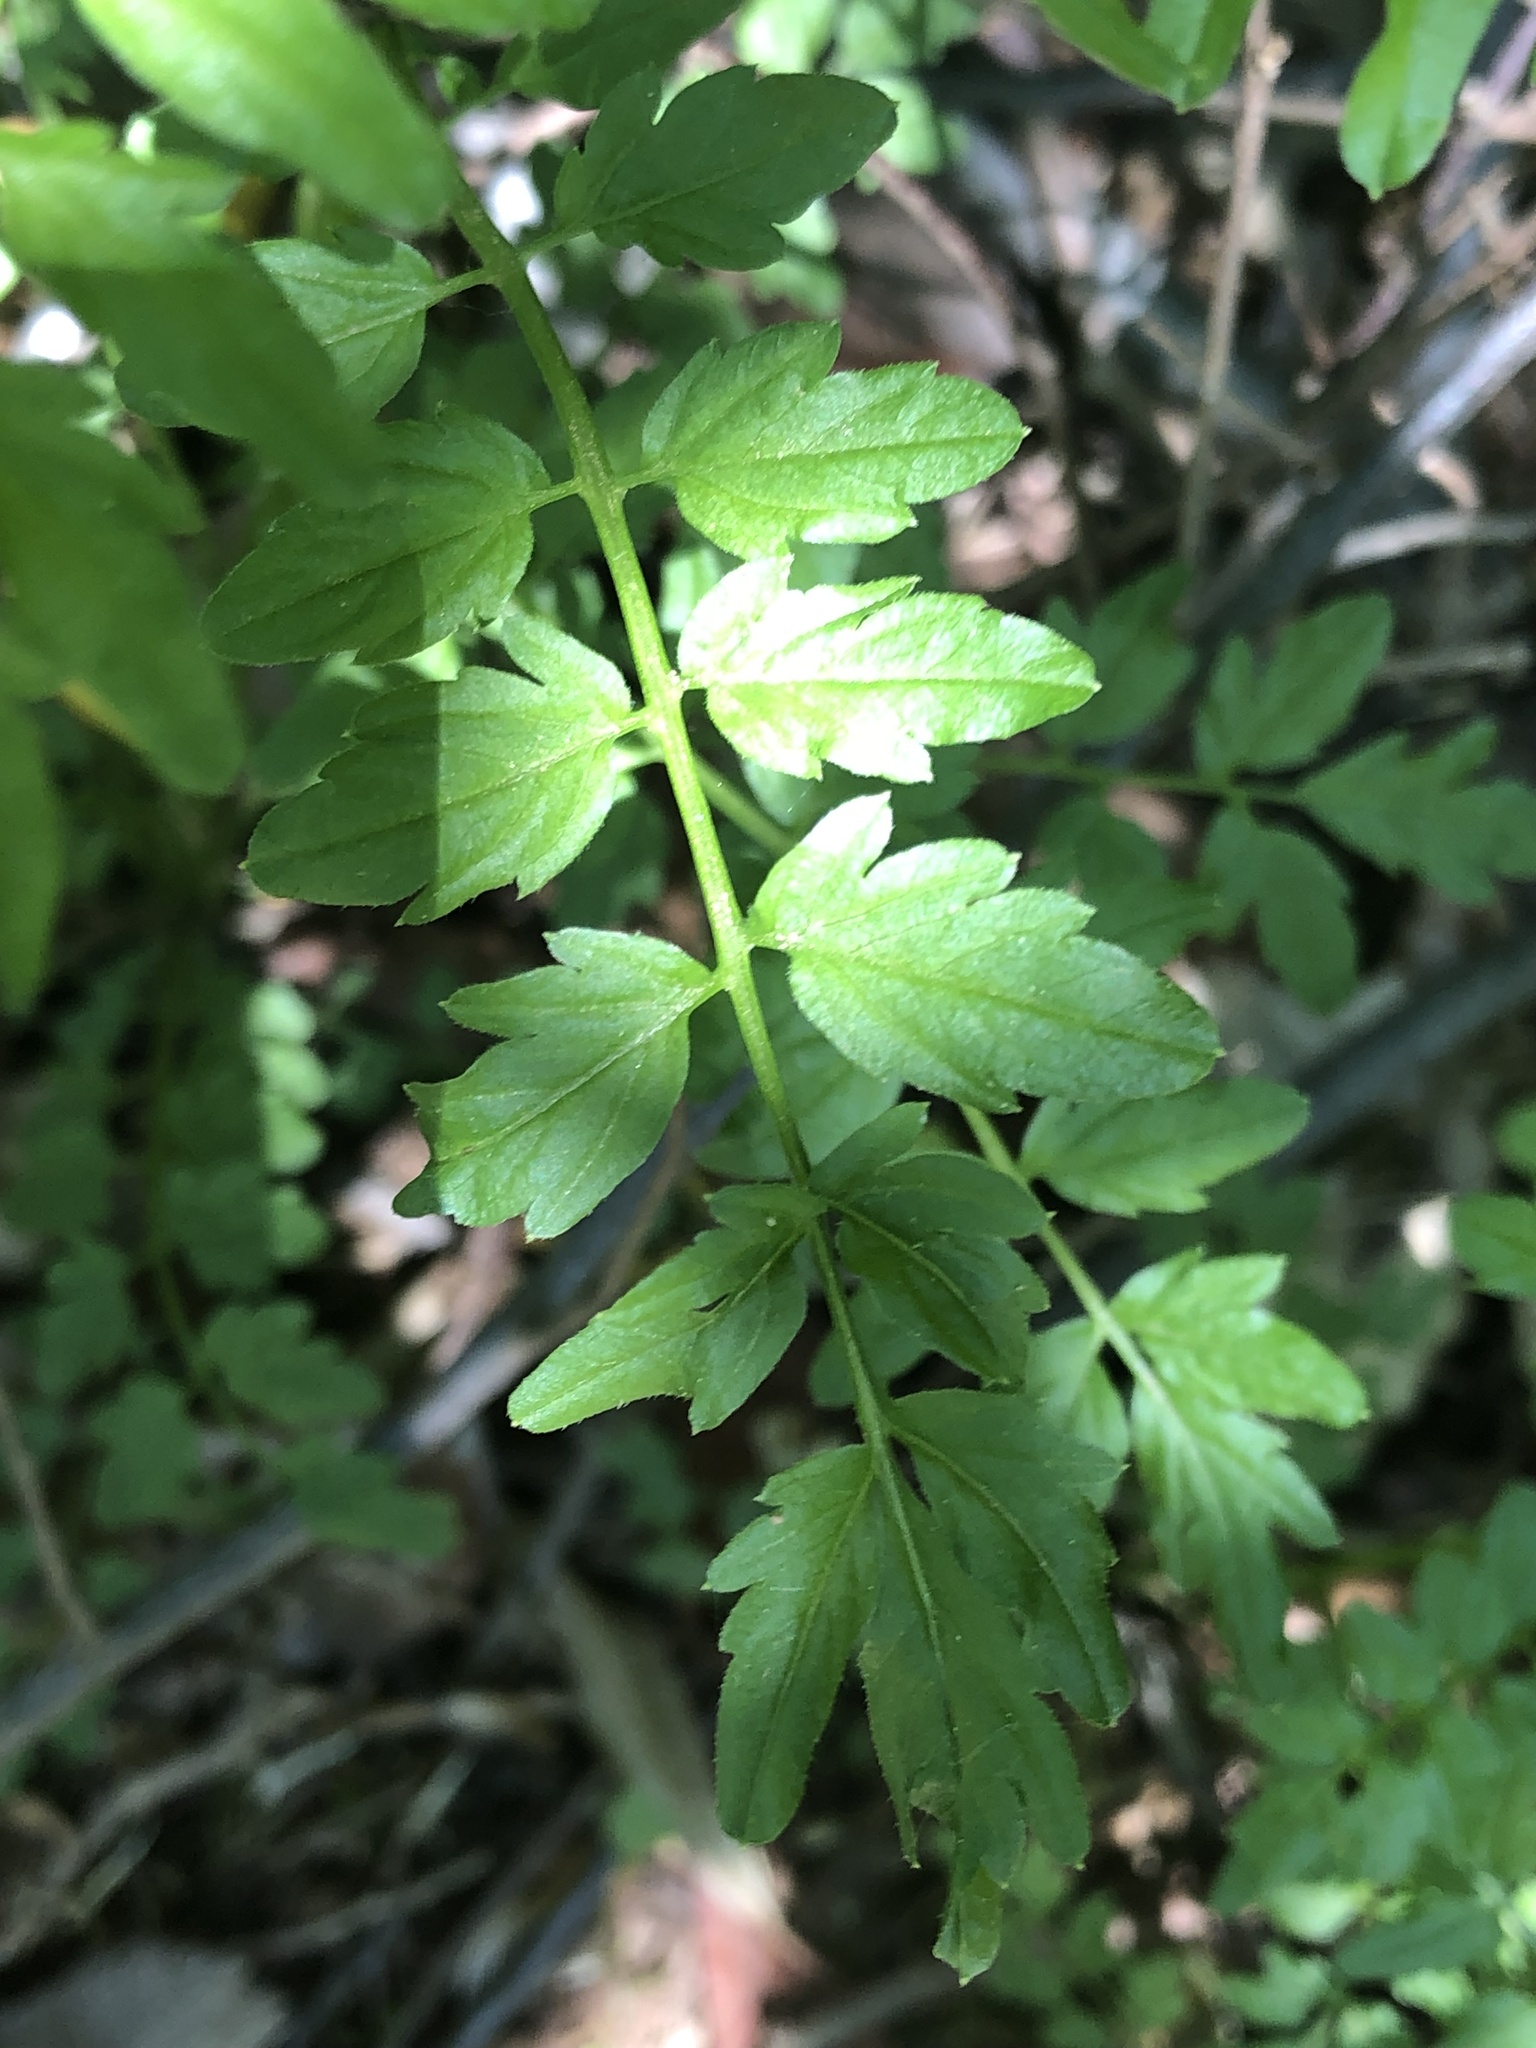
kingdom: Plantae
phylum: Tracheophyta
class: Magnoliopsida
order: Brassicales
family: Brassicaceae
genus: Cardamine
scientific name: Cardamine impatiens
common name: Narrow-leaved bitter-cress
